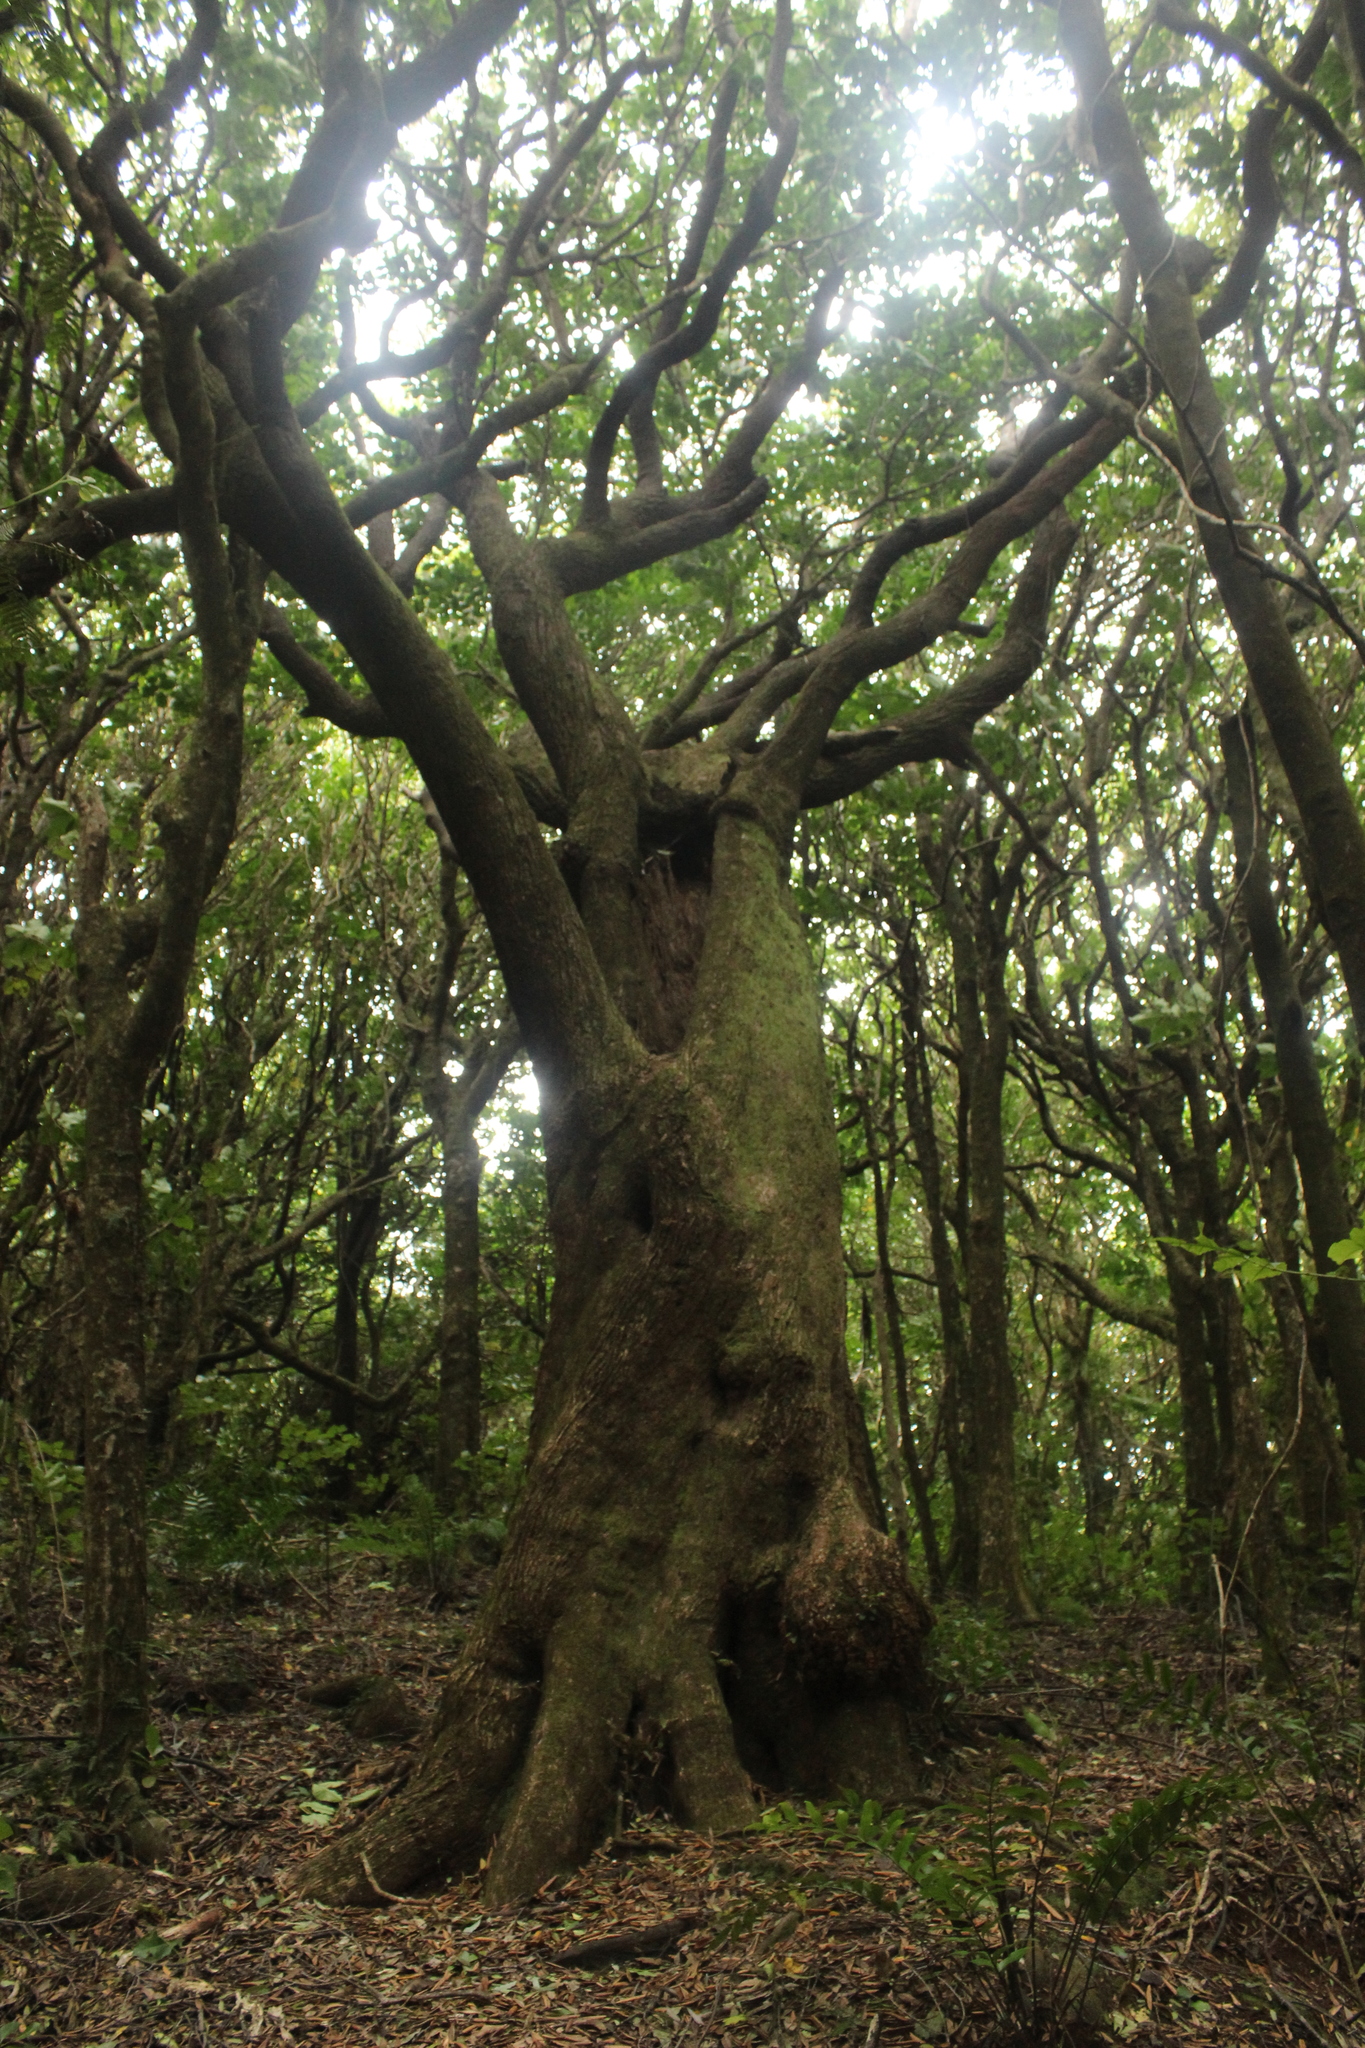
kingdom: Plantae
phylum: Tracheophyta
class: Magnoliopsida
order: Laurales
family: Lauraceae
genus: Beilschmiedia
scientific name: Beilschmiedia tawa
